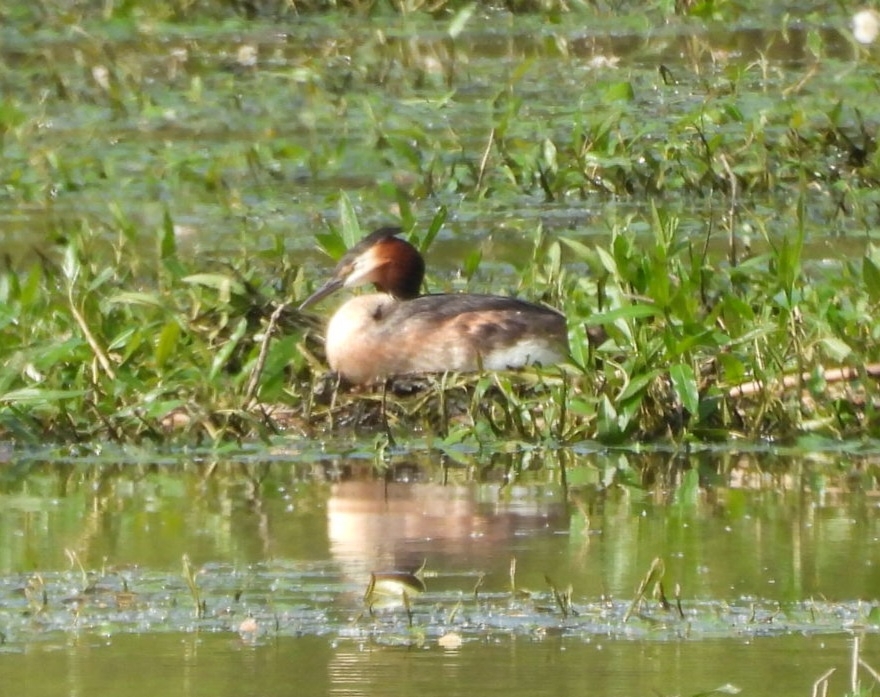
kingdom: Animalia
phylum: Chordata
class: Aves
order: Podicipediformes
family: Podicipedidae
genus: Podiceps
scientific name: Podiceps cristatus
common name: Great crested grebe
